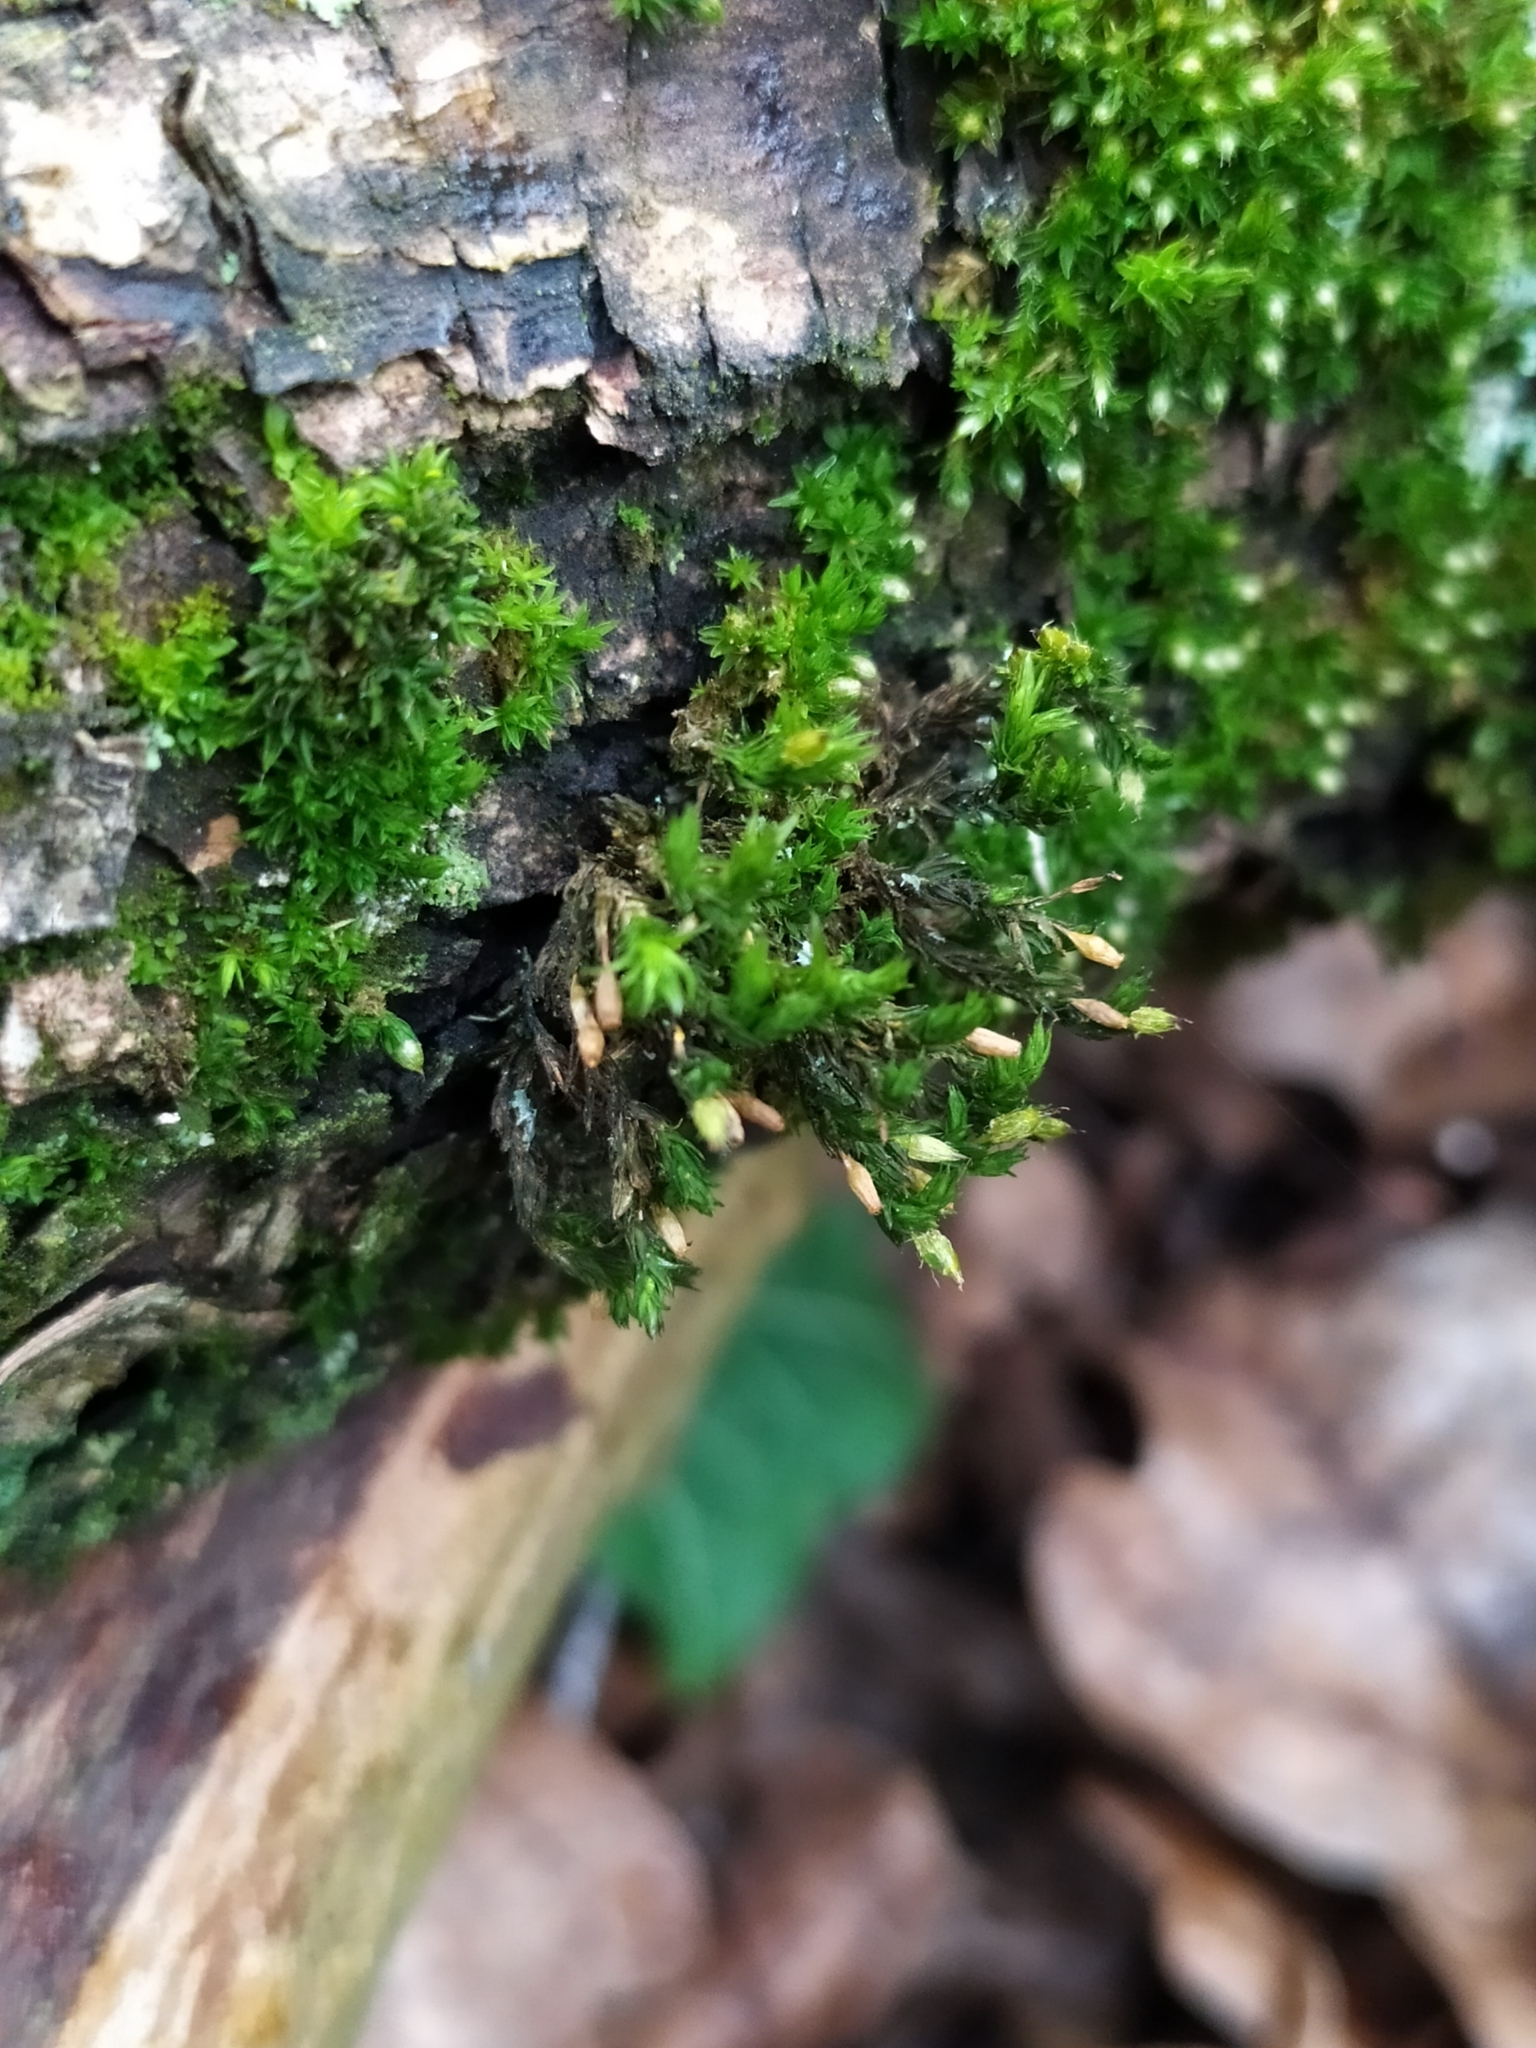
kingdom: Plantae
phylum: Bryophyta
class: Bryopsida
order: Orthotrichales
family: Orthotrichaceae
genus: Lewinskya
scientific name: Lewinskya speciosa
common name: Showy bristle moss
